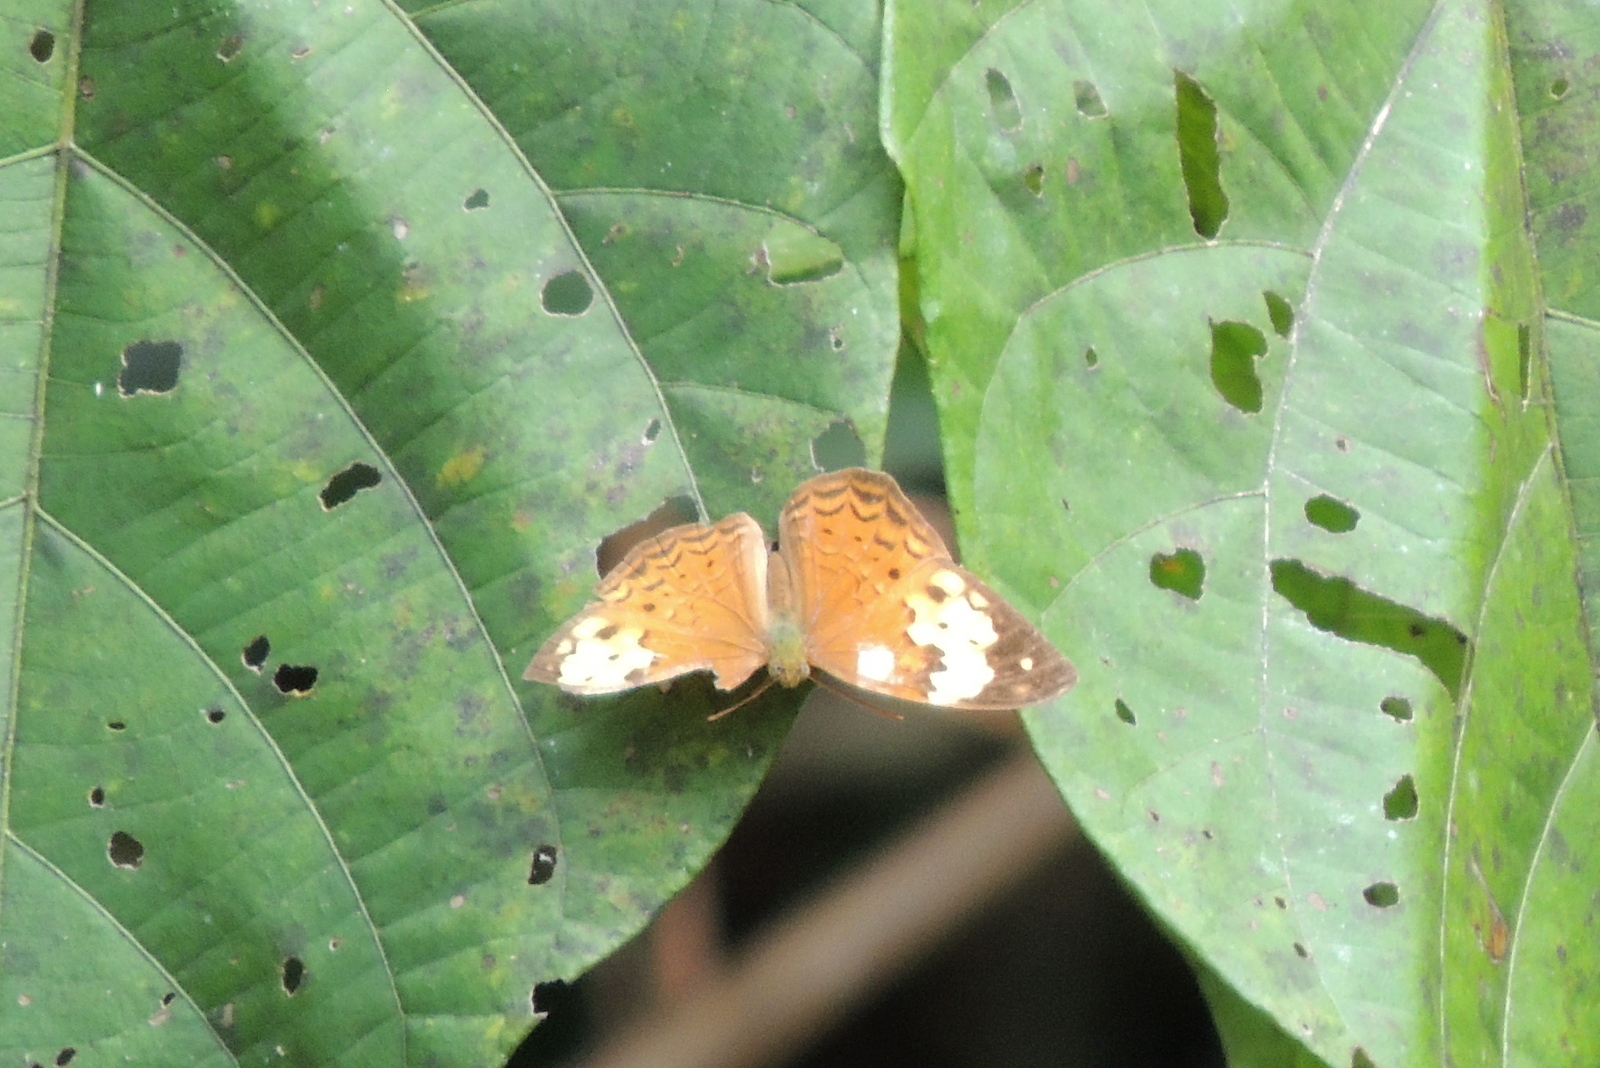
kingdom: Animalia
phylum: Arthropoda
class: Insecta
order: Lepidoptera
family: Nymphalidae
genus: Cupha
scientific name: Cupha erymanthis
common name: Rustic
